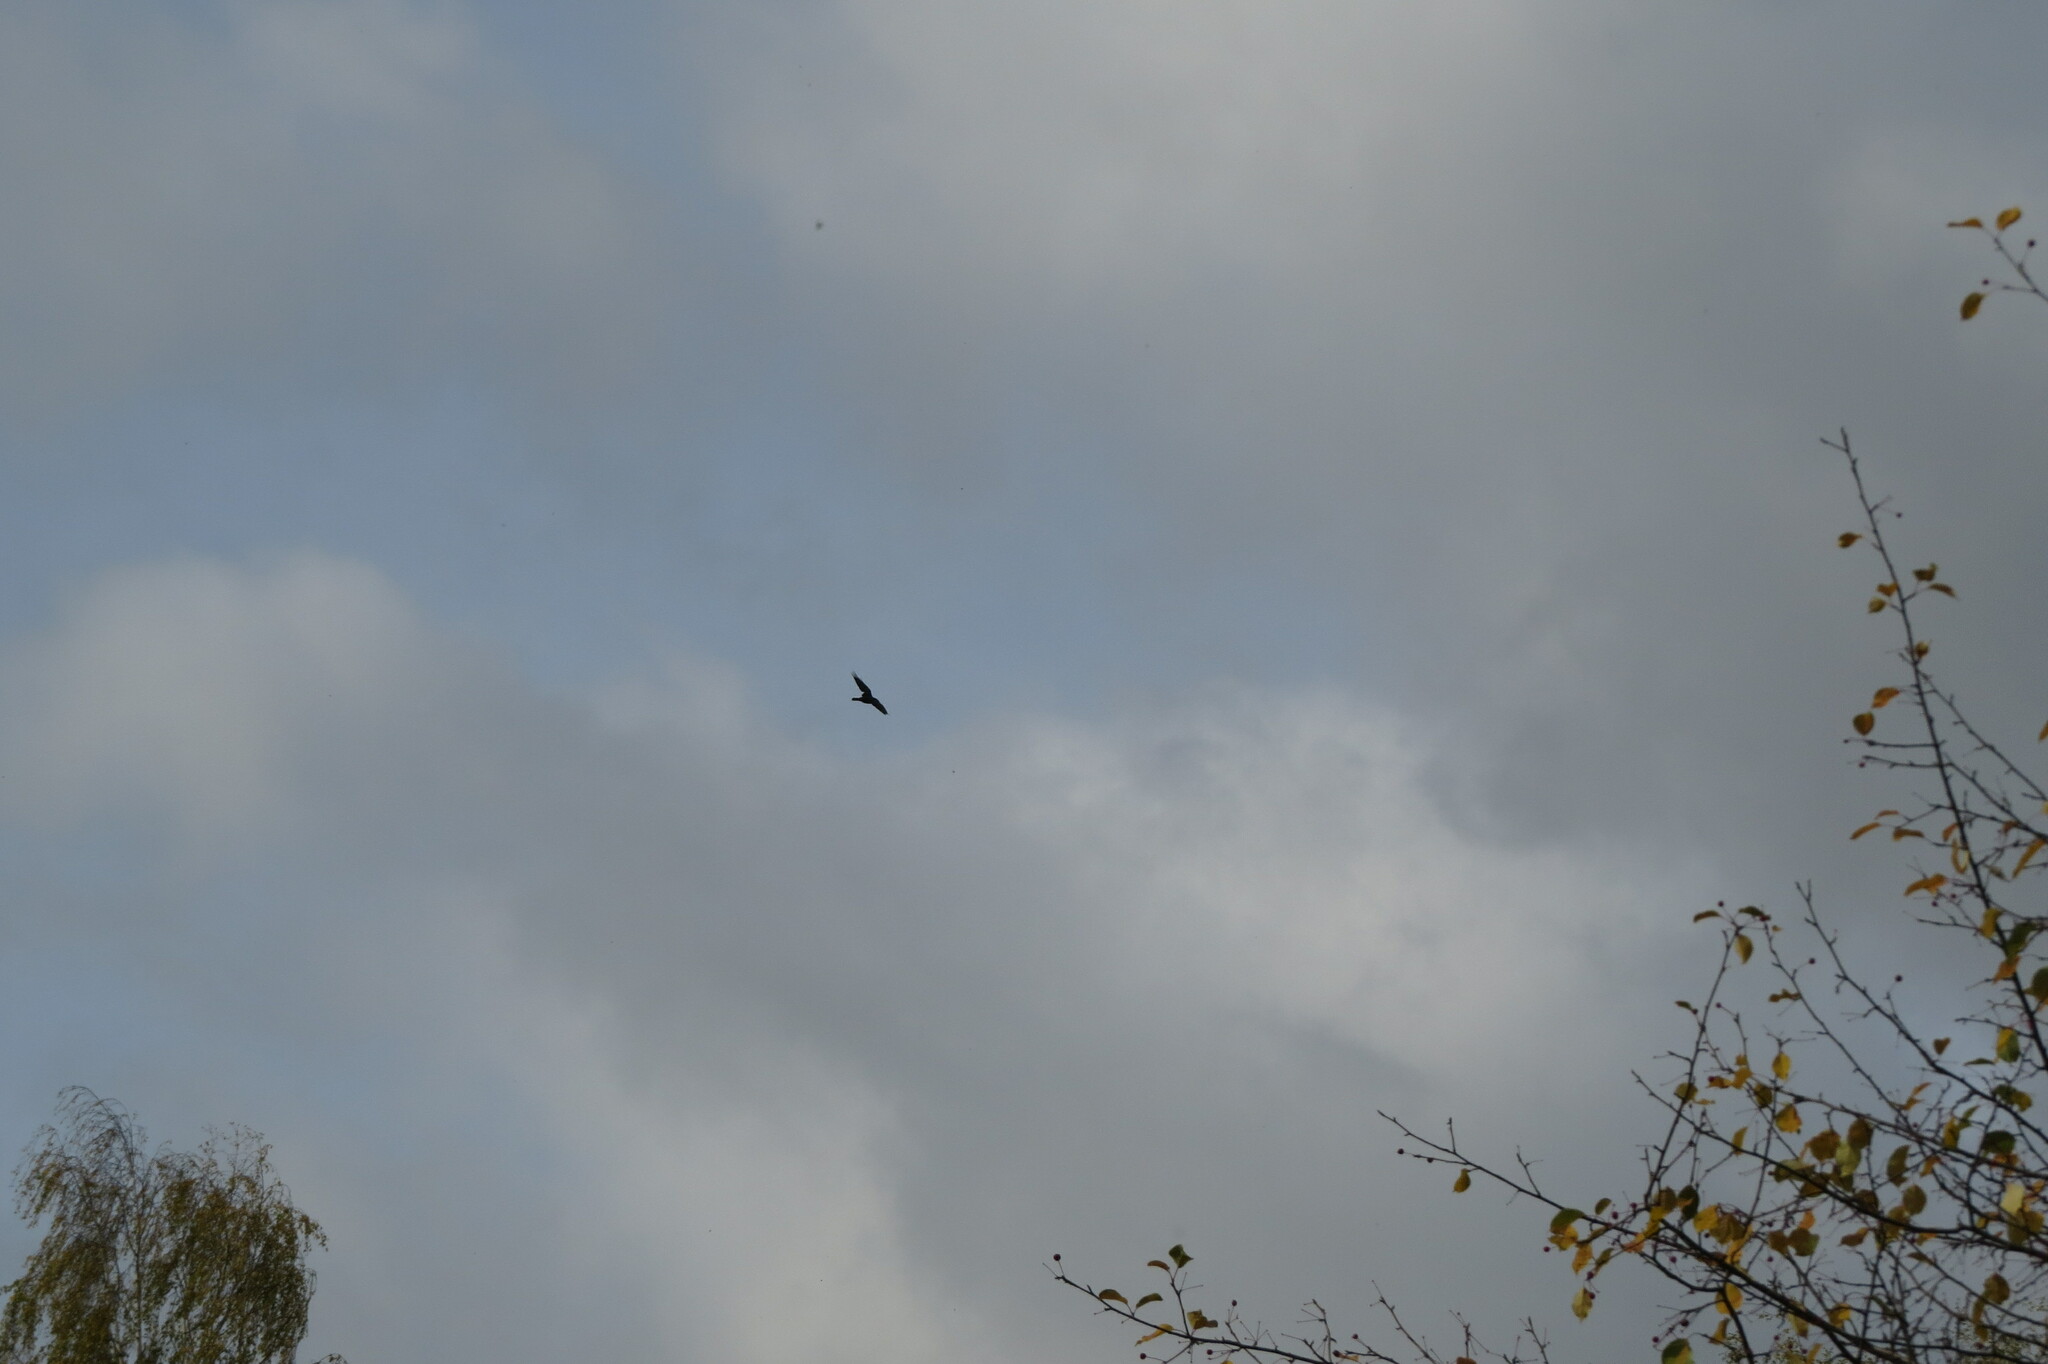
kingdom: Animalia
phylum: Chordata
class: Aves
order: Passeriformes
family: Corvidae
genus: Corvus
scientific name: Corvus corax
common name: Common raven
